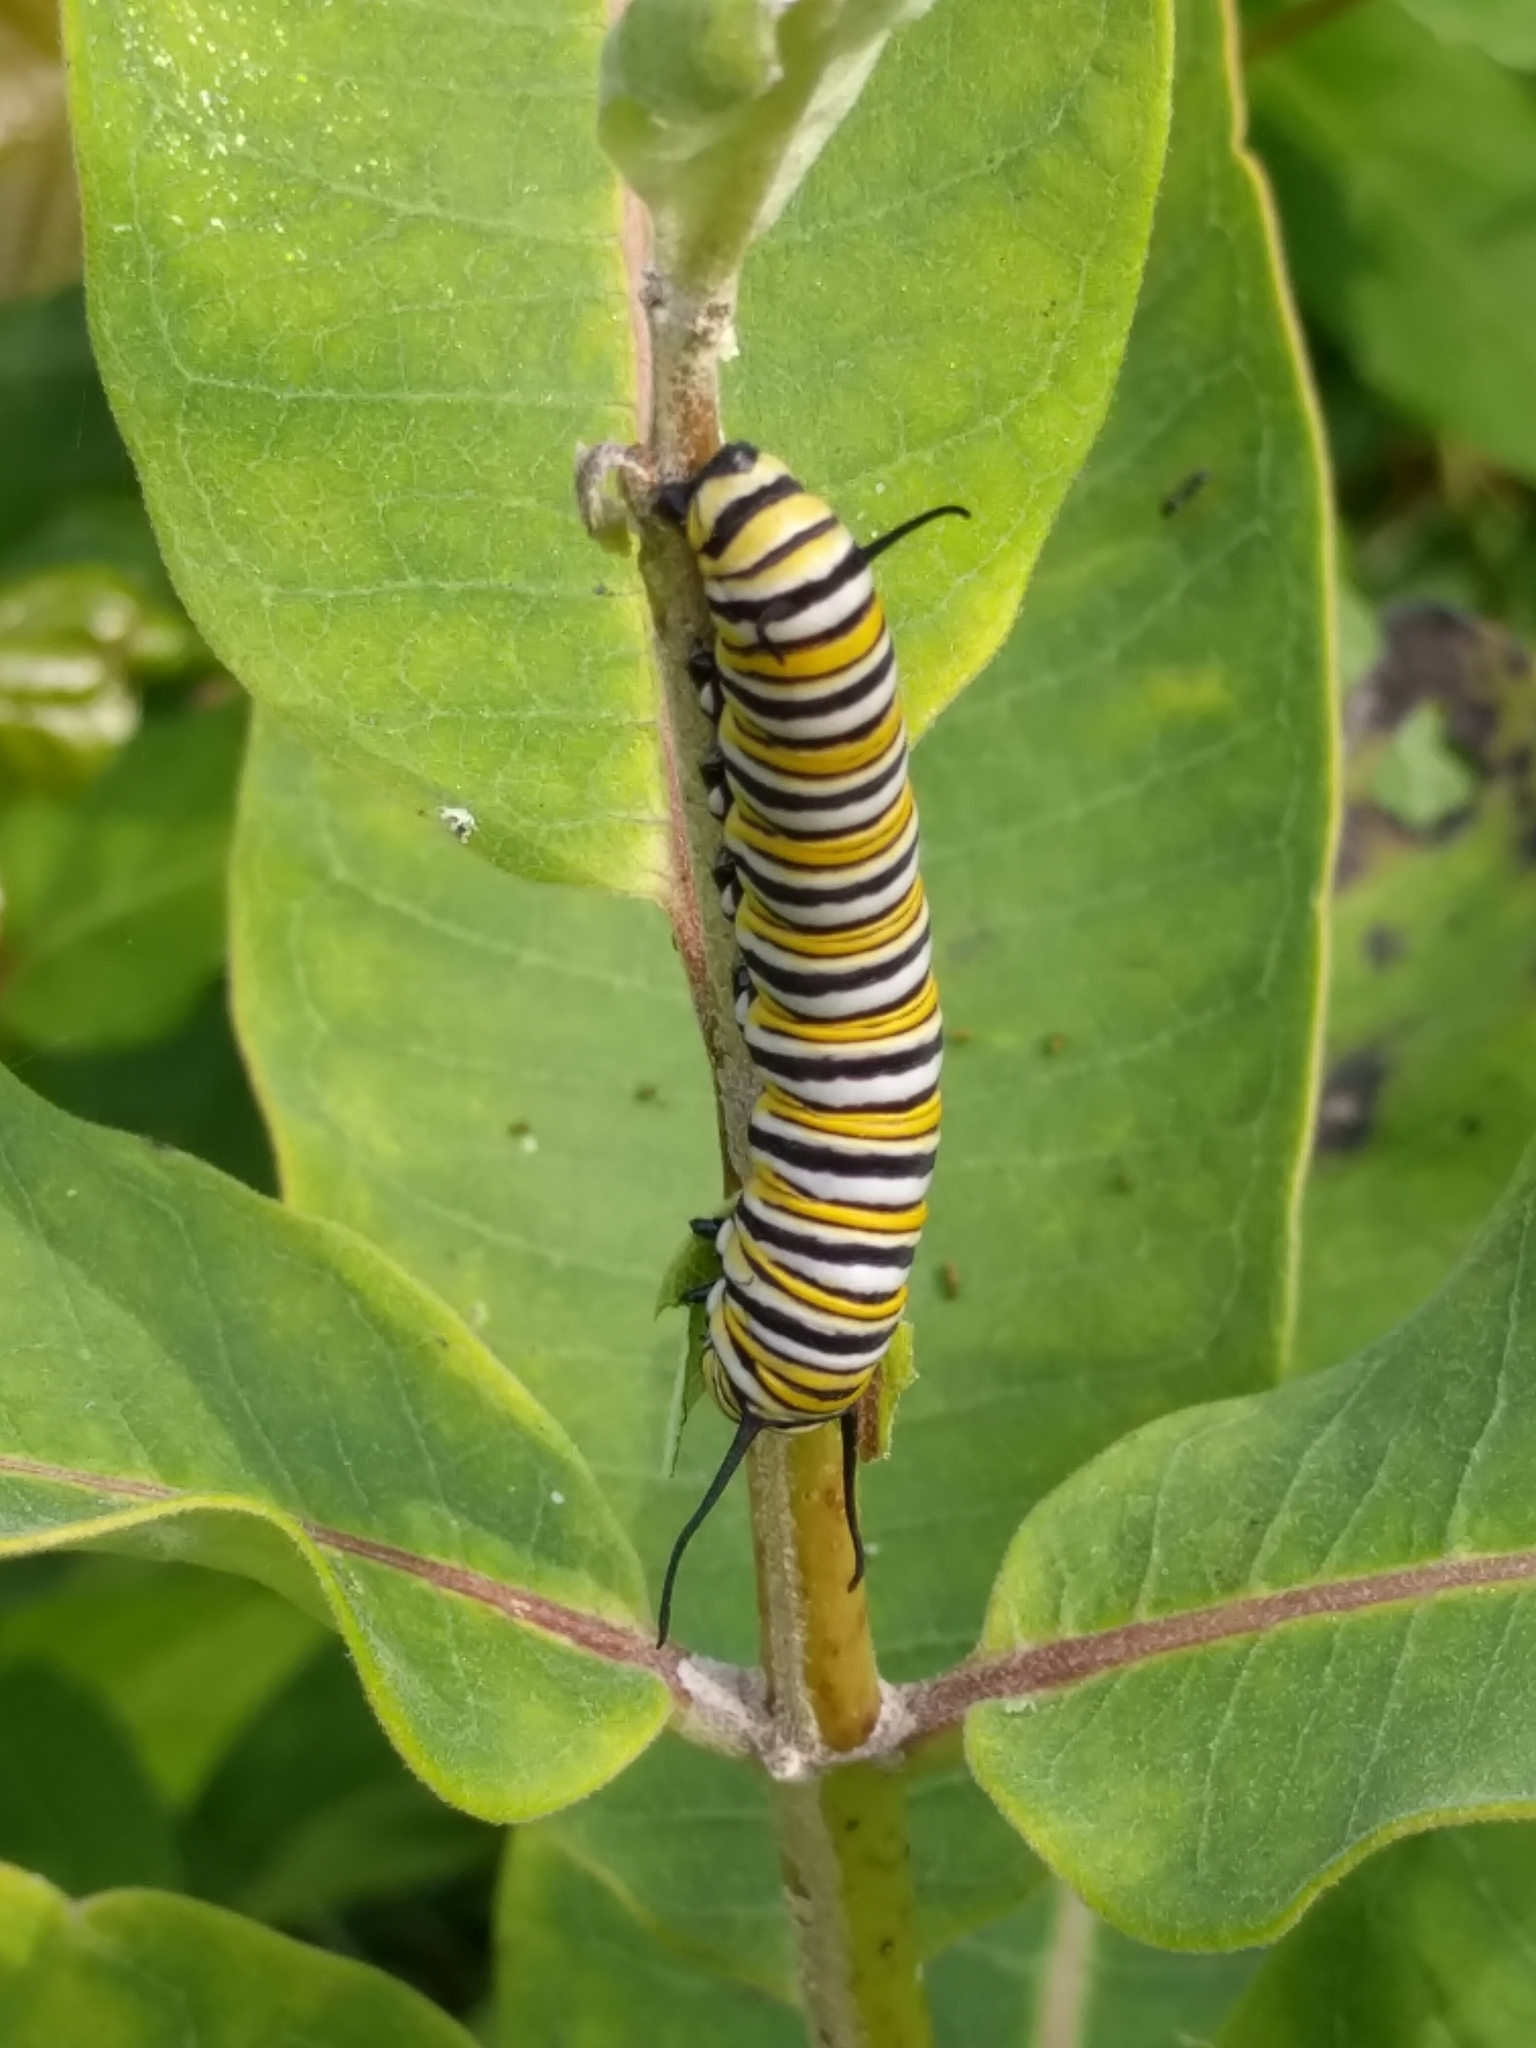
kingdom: Animalia
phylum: Arthropoda
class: Insecta
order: Lepidoptera
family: Nymphalidae
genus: Danaus
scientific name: Danaus plexippus
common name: Monarch
